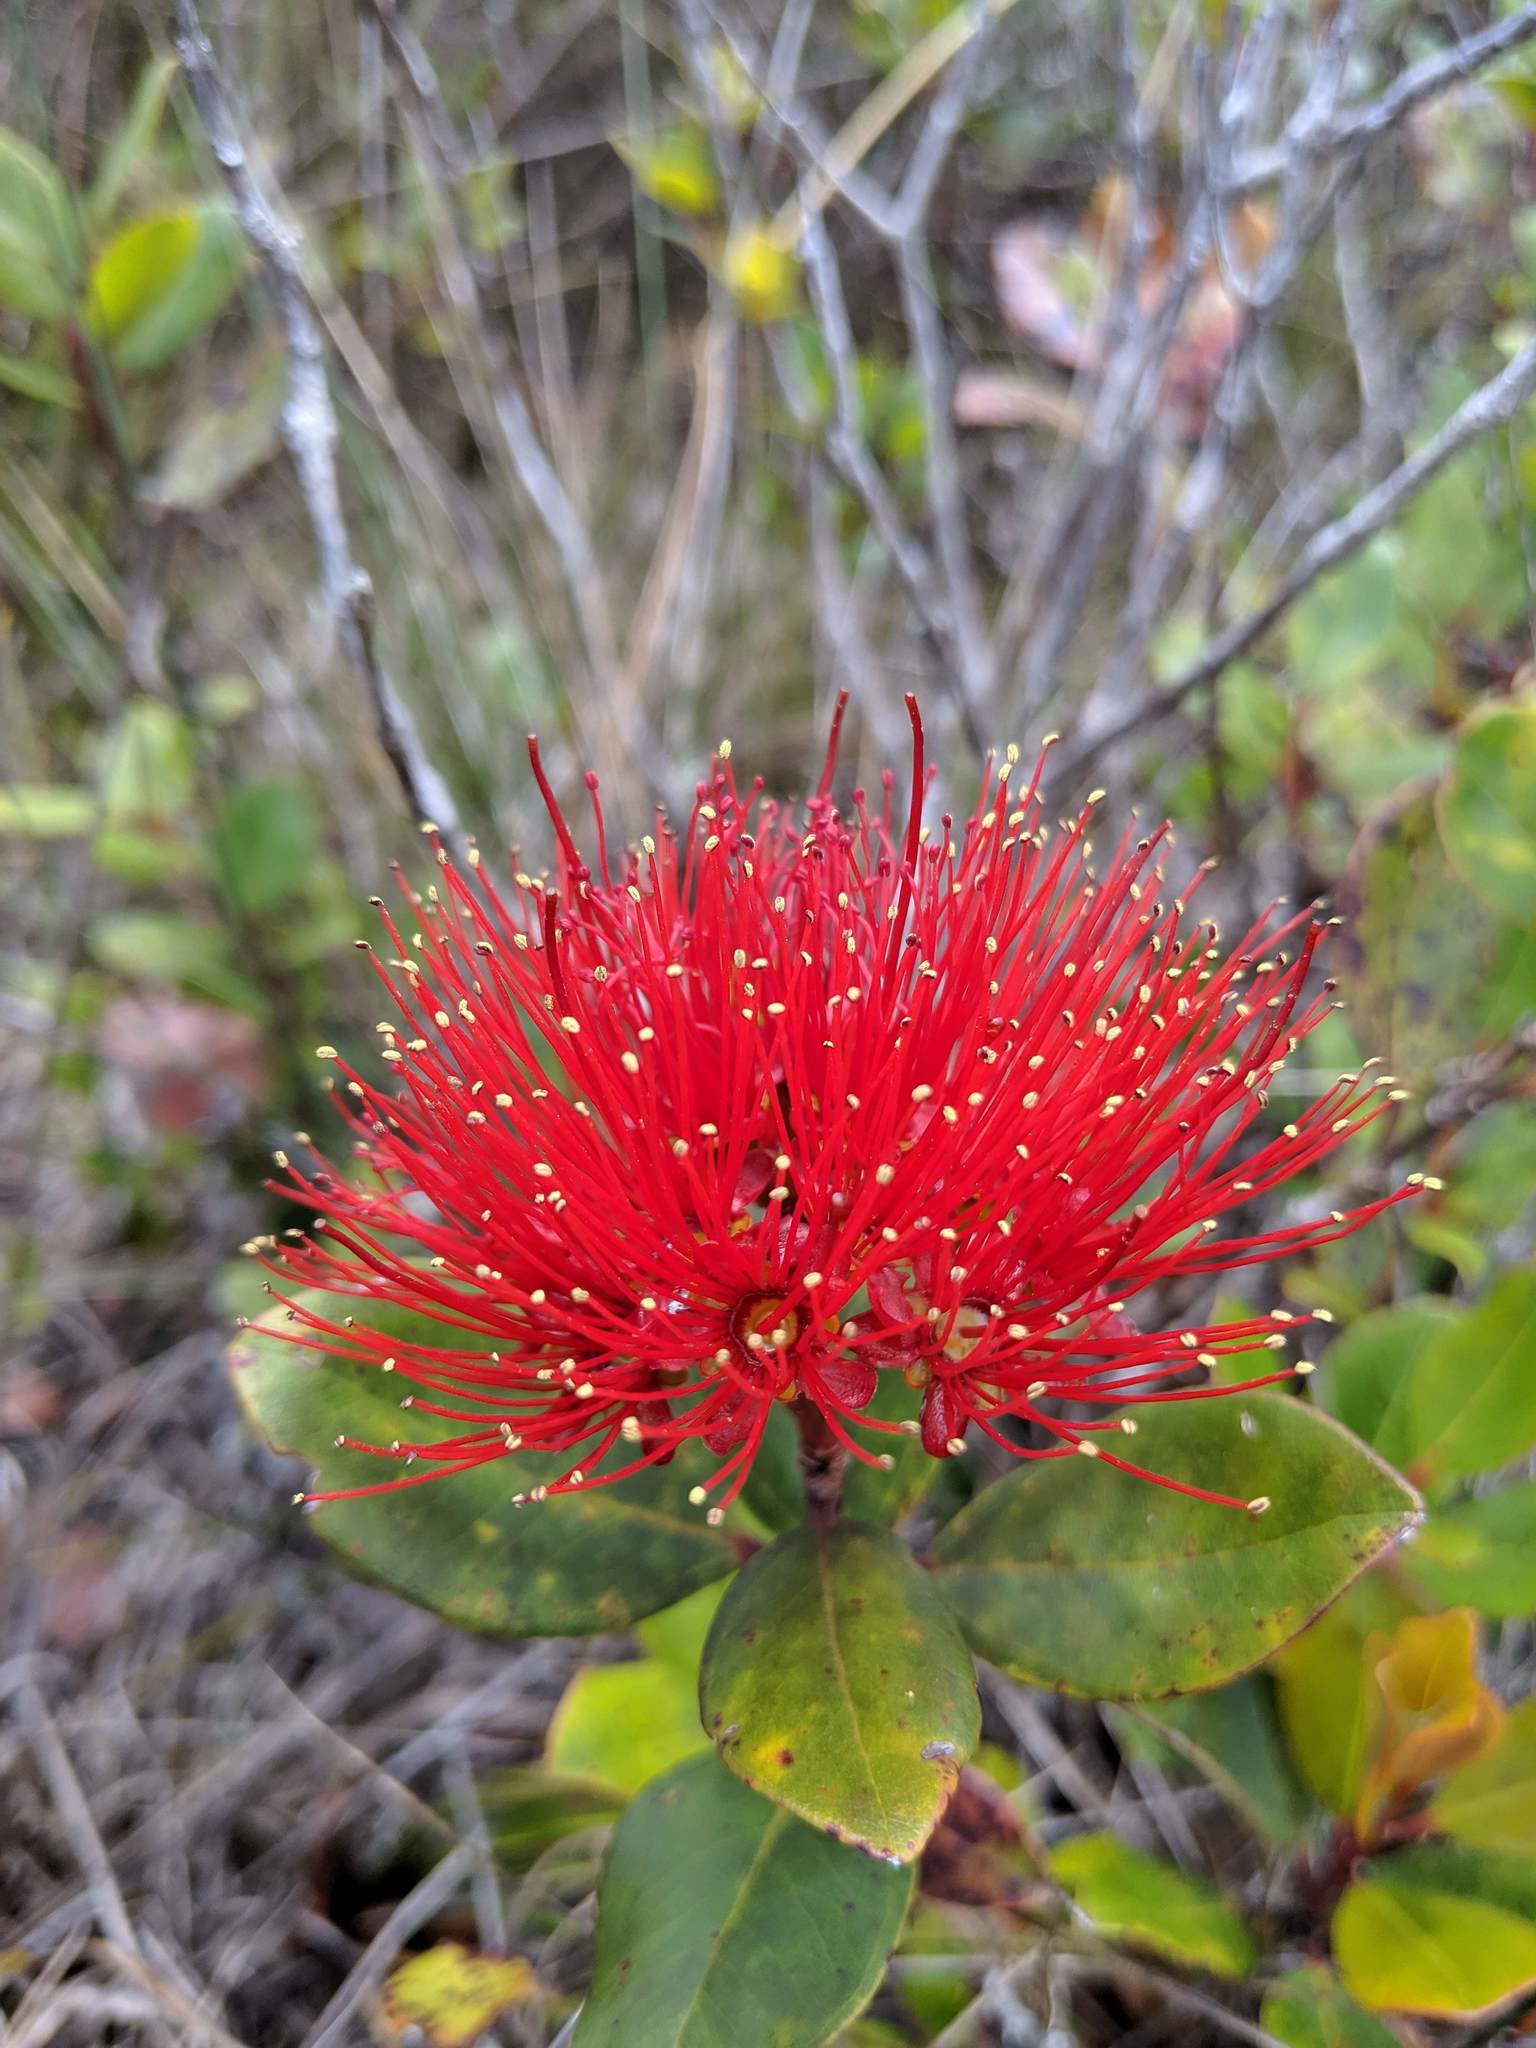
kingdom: Plantae
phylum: Tracheophyta
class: Magnoliopsida
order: Myrtales
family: Myrtaceae
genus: Metrosideros
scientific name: Metrosideros polymorpha
